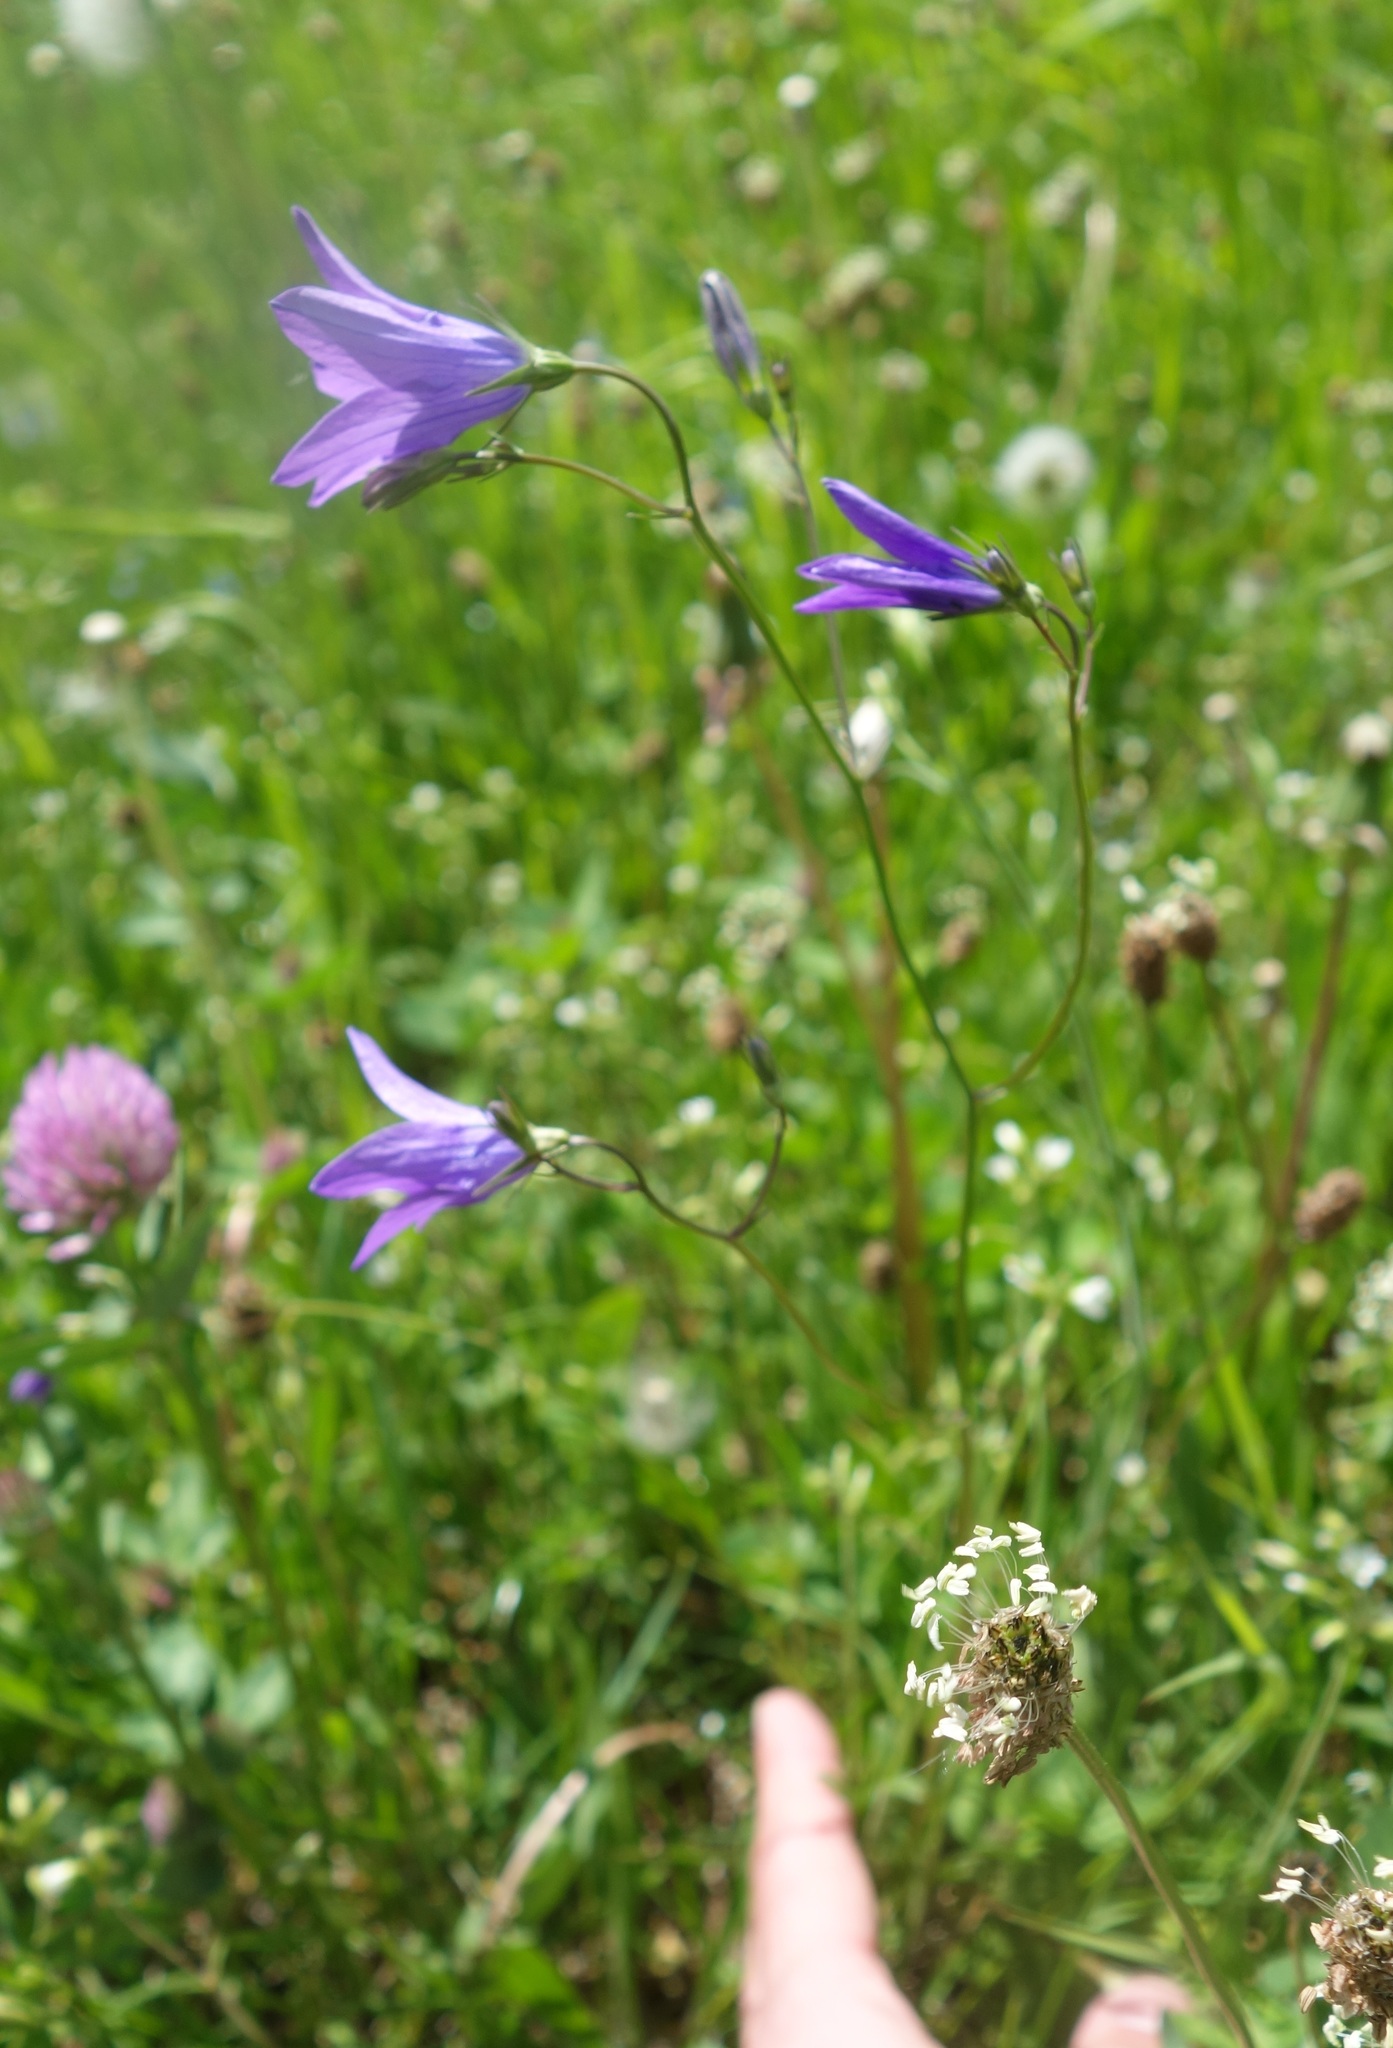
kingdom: Plantae
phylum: Tracheophyta
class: Magnoliopsida
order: Asterales
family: Campanulaceae
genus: Campanula
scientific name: Campanula patula
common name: Spreading bellflower
